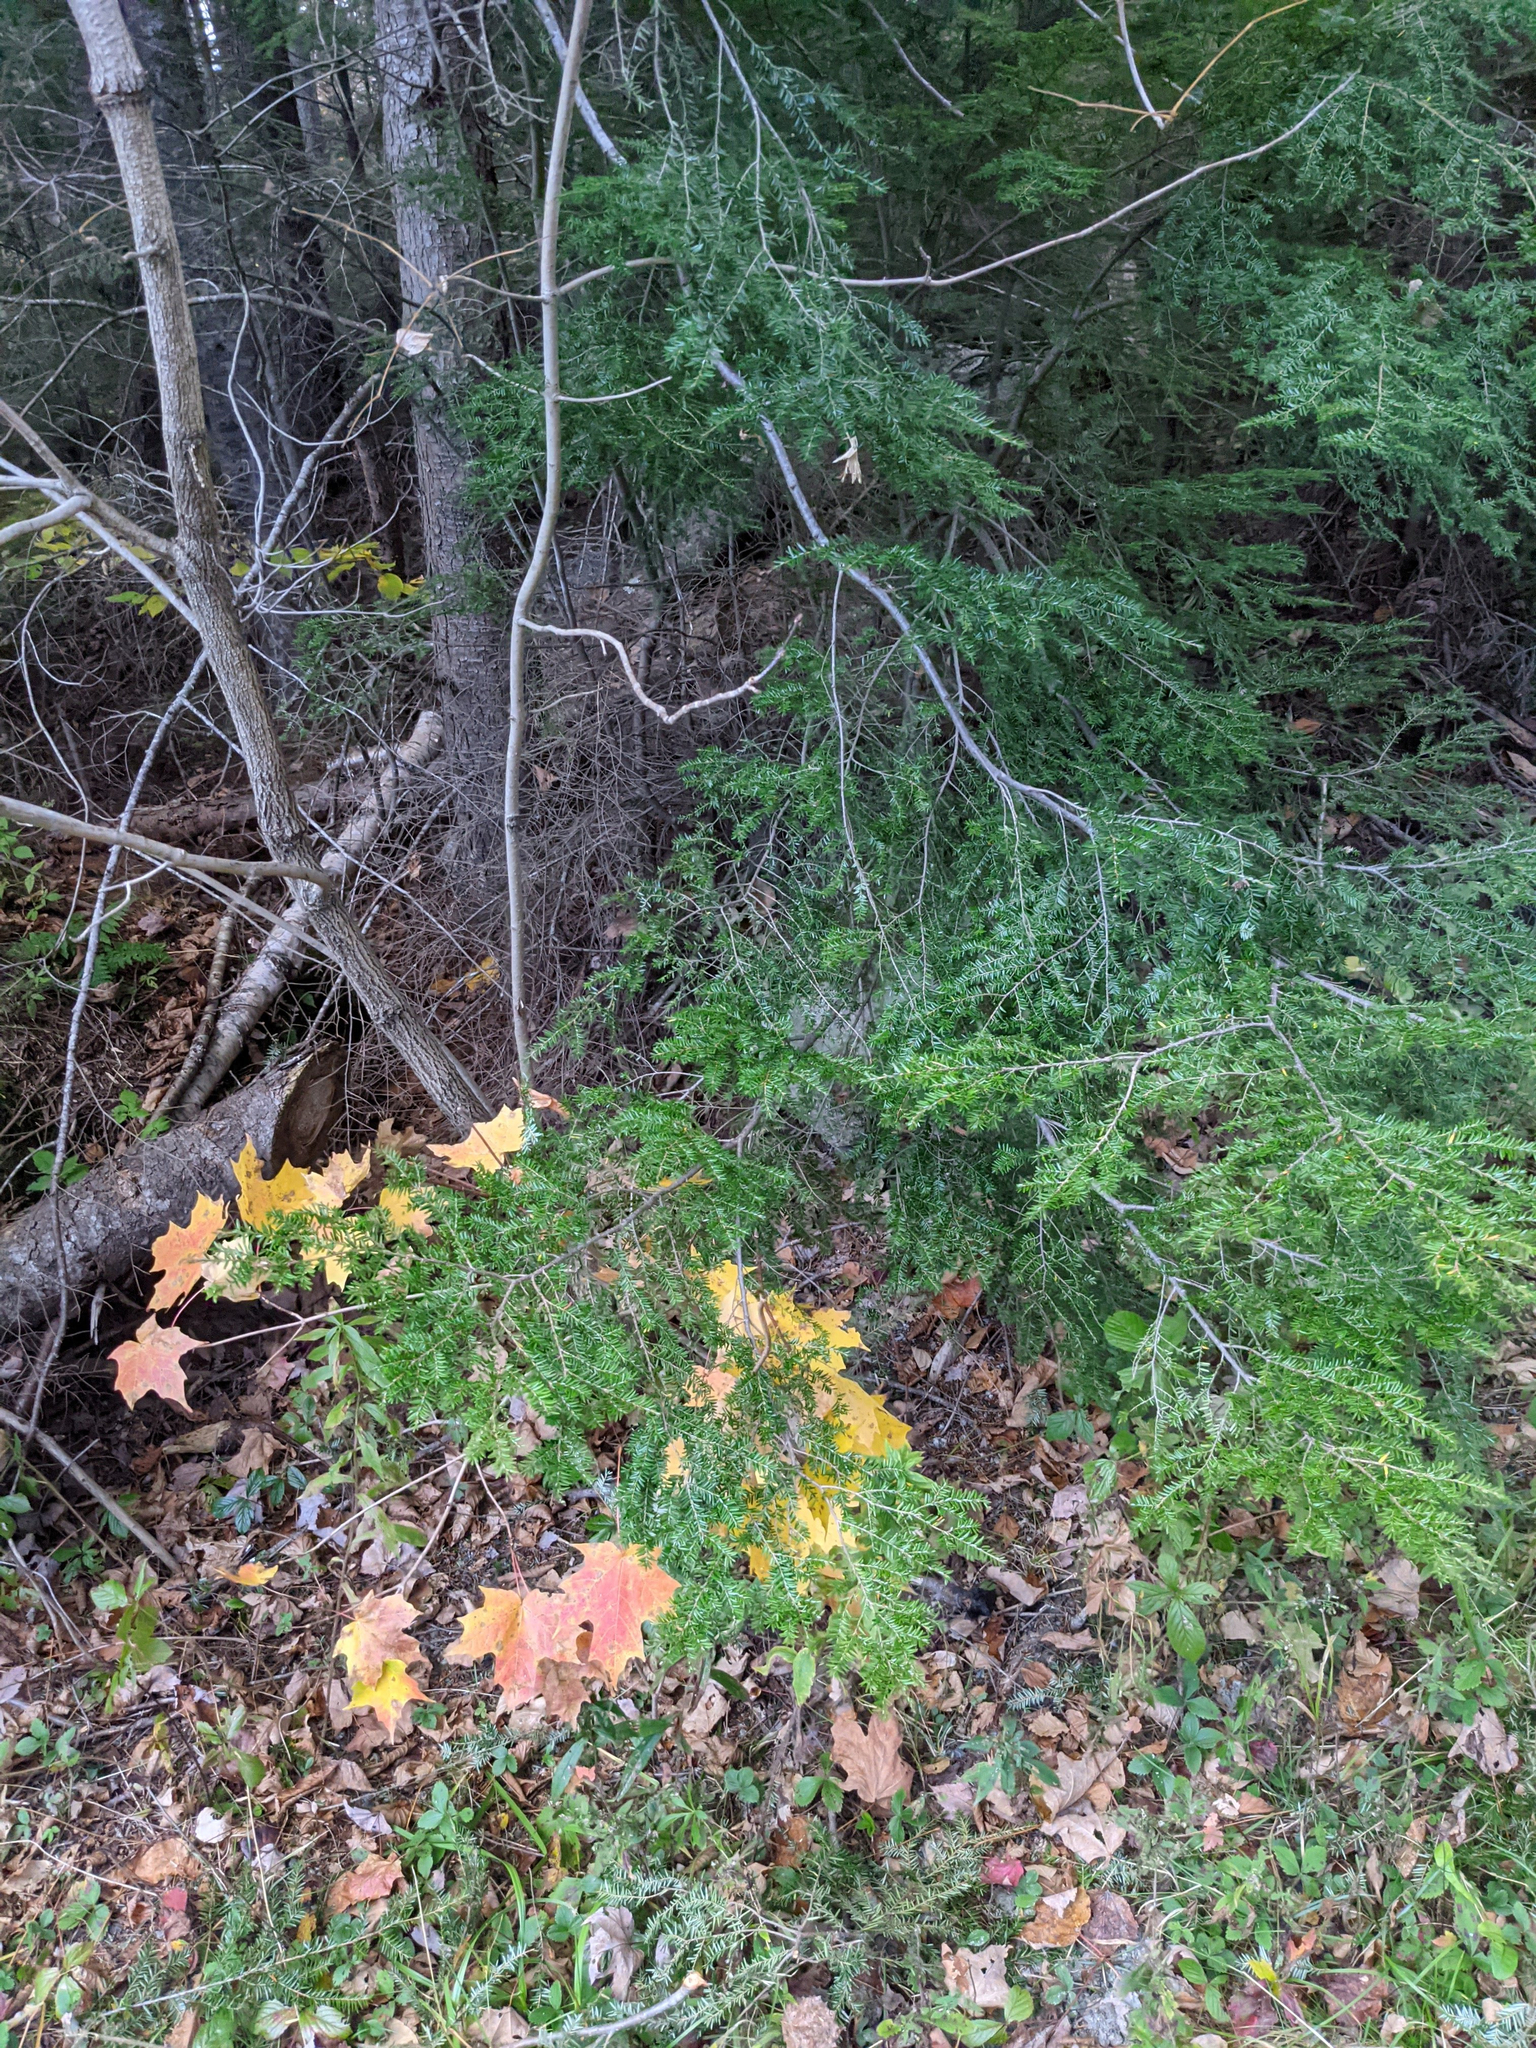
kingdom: Plantae
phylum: Tracheophyta
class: Pinopsida
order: Pinales
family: Pinaceae
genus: Tsuga
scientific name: Tsuga canadensis
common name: Eastern hemlock
